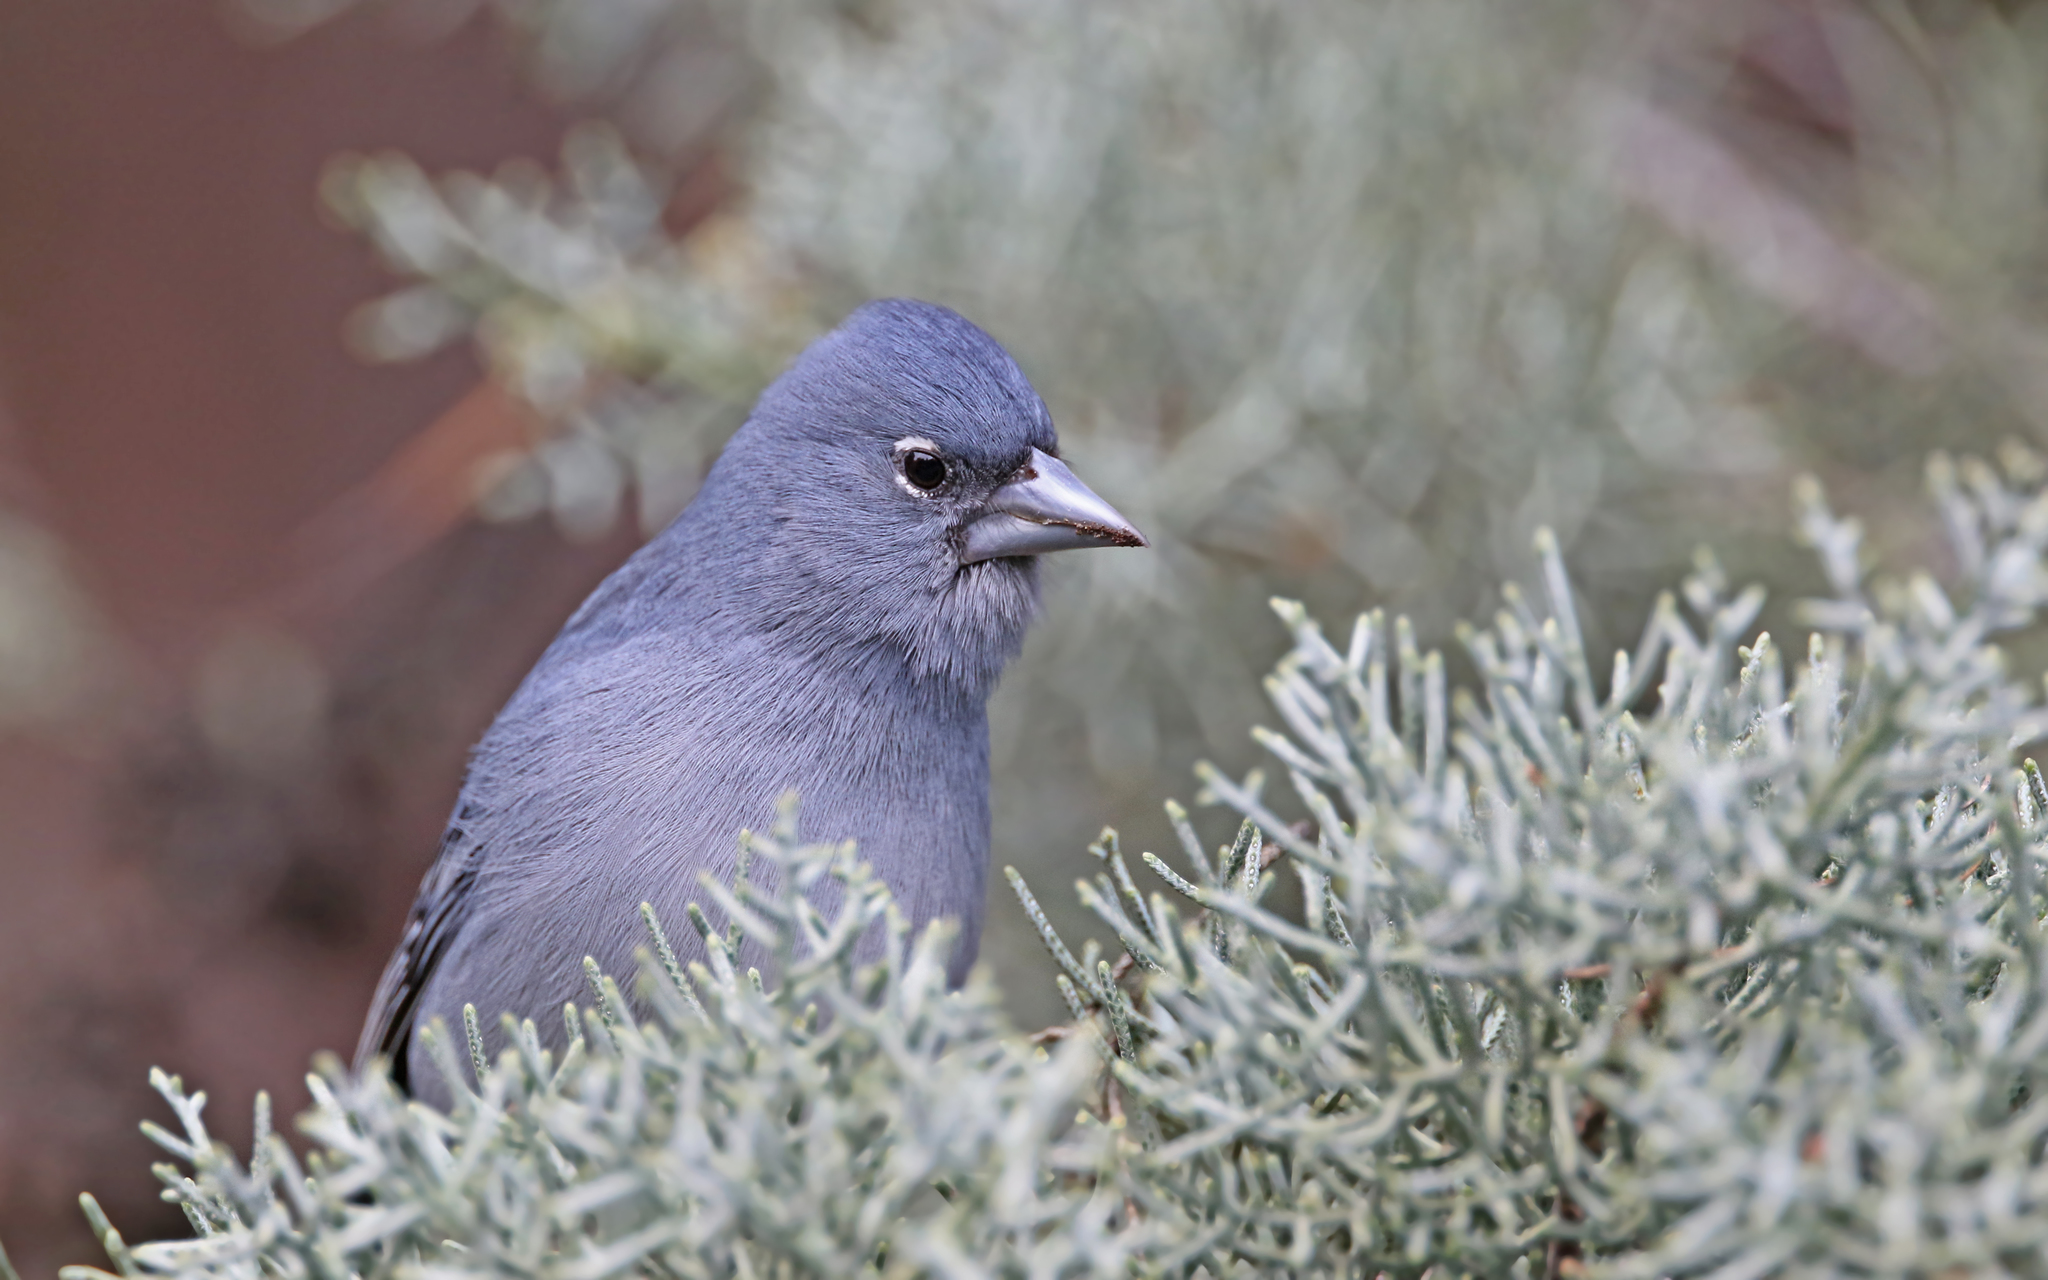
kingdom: Animalia
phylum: Chordata
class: Aves
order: Passeriformes
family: Fringillidae
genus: Fringilla
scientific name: Fringilla teydea
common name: Blue chaffinch
